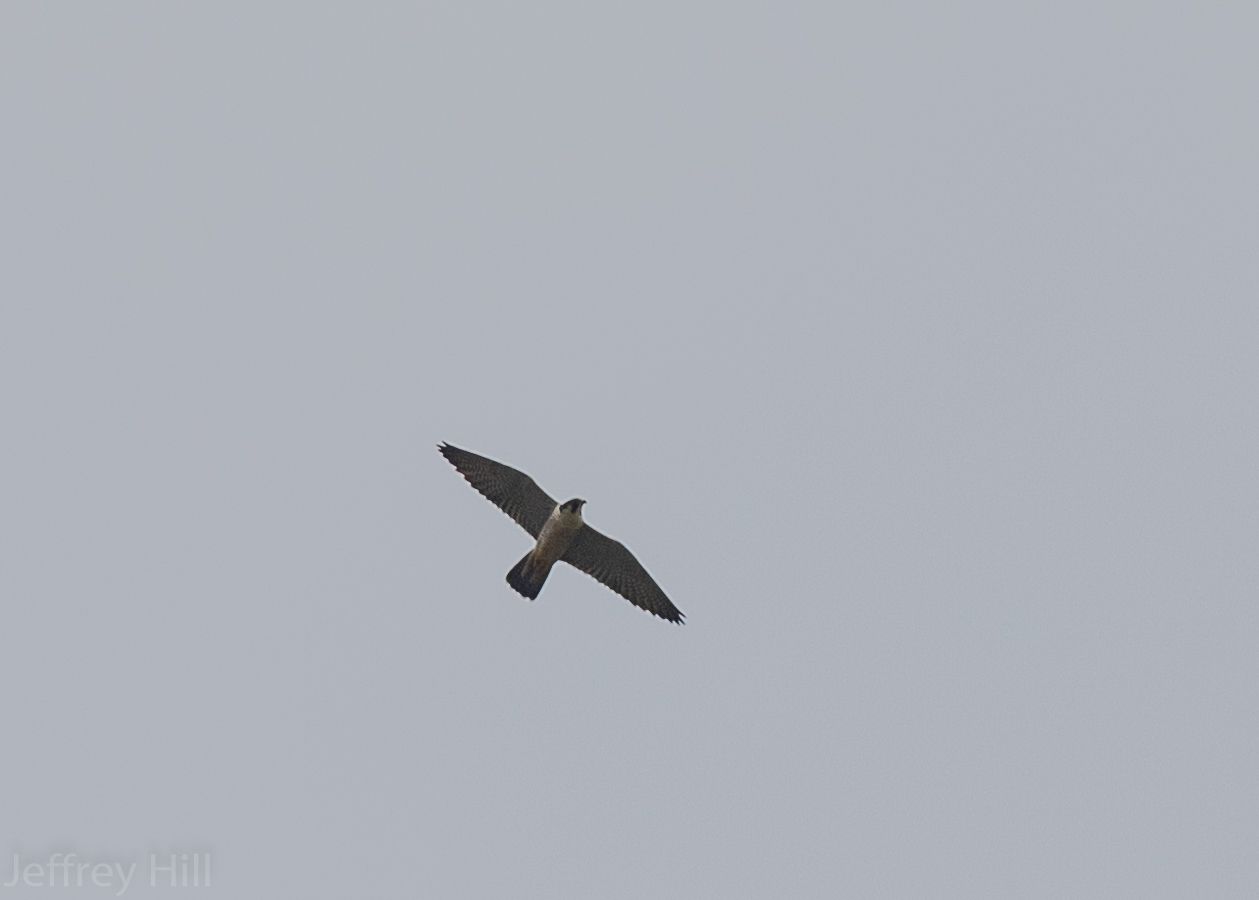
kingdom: Animalia
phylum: Chordata
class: Aves
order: Falconiformes
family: Falconidae
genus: Falco
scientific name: Falco peregrinus
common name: Peregrine falcon
